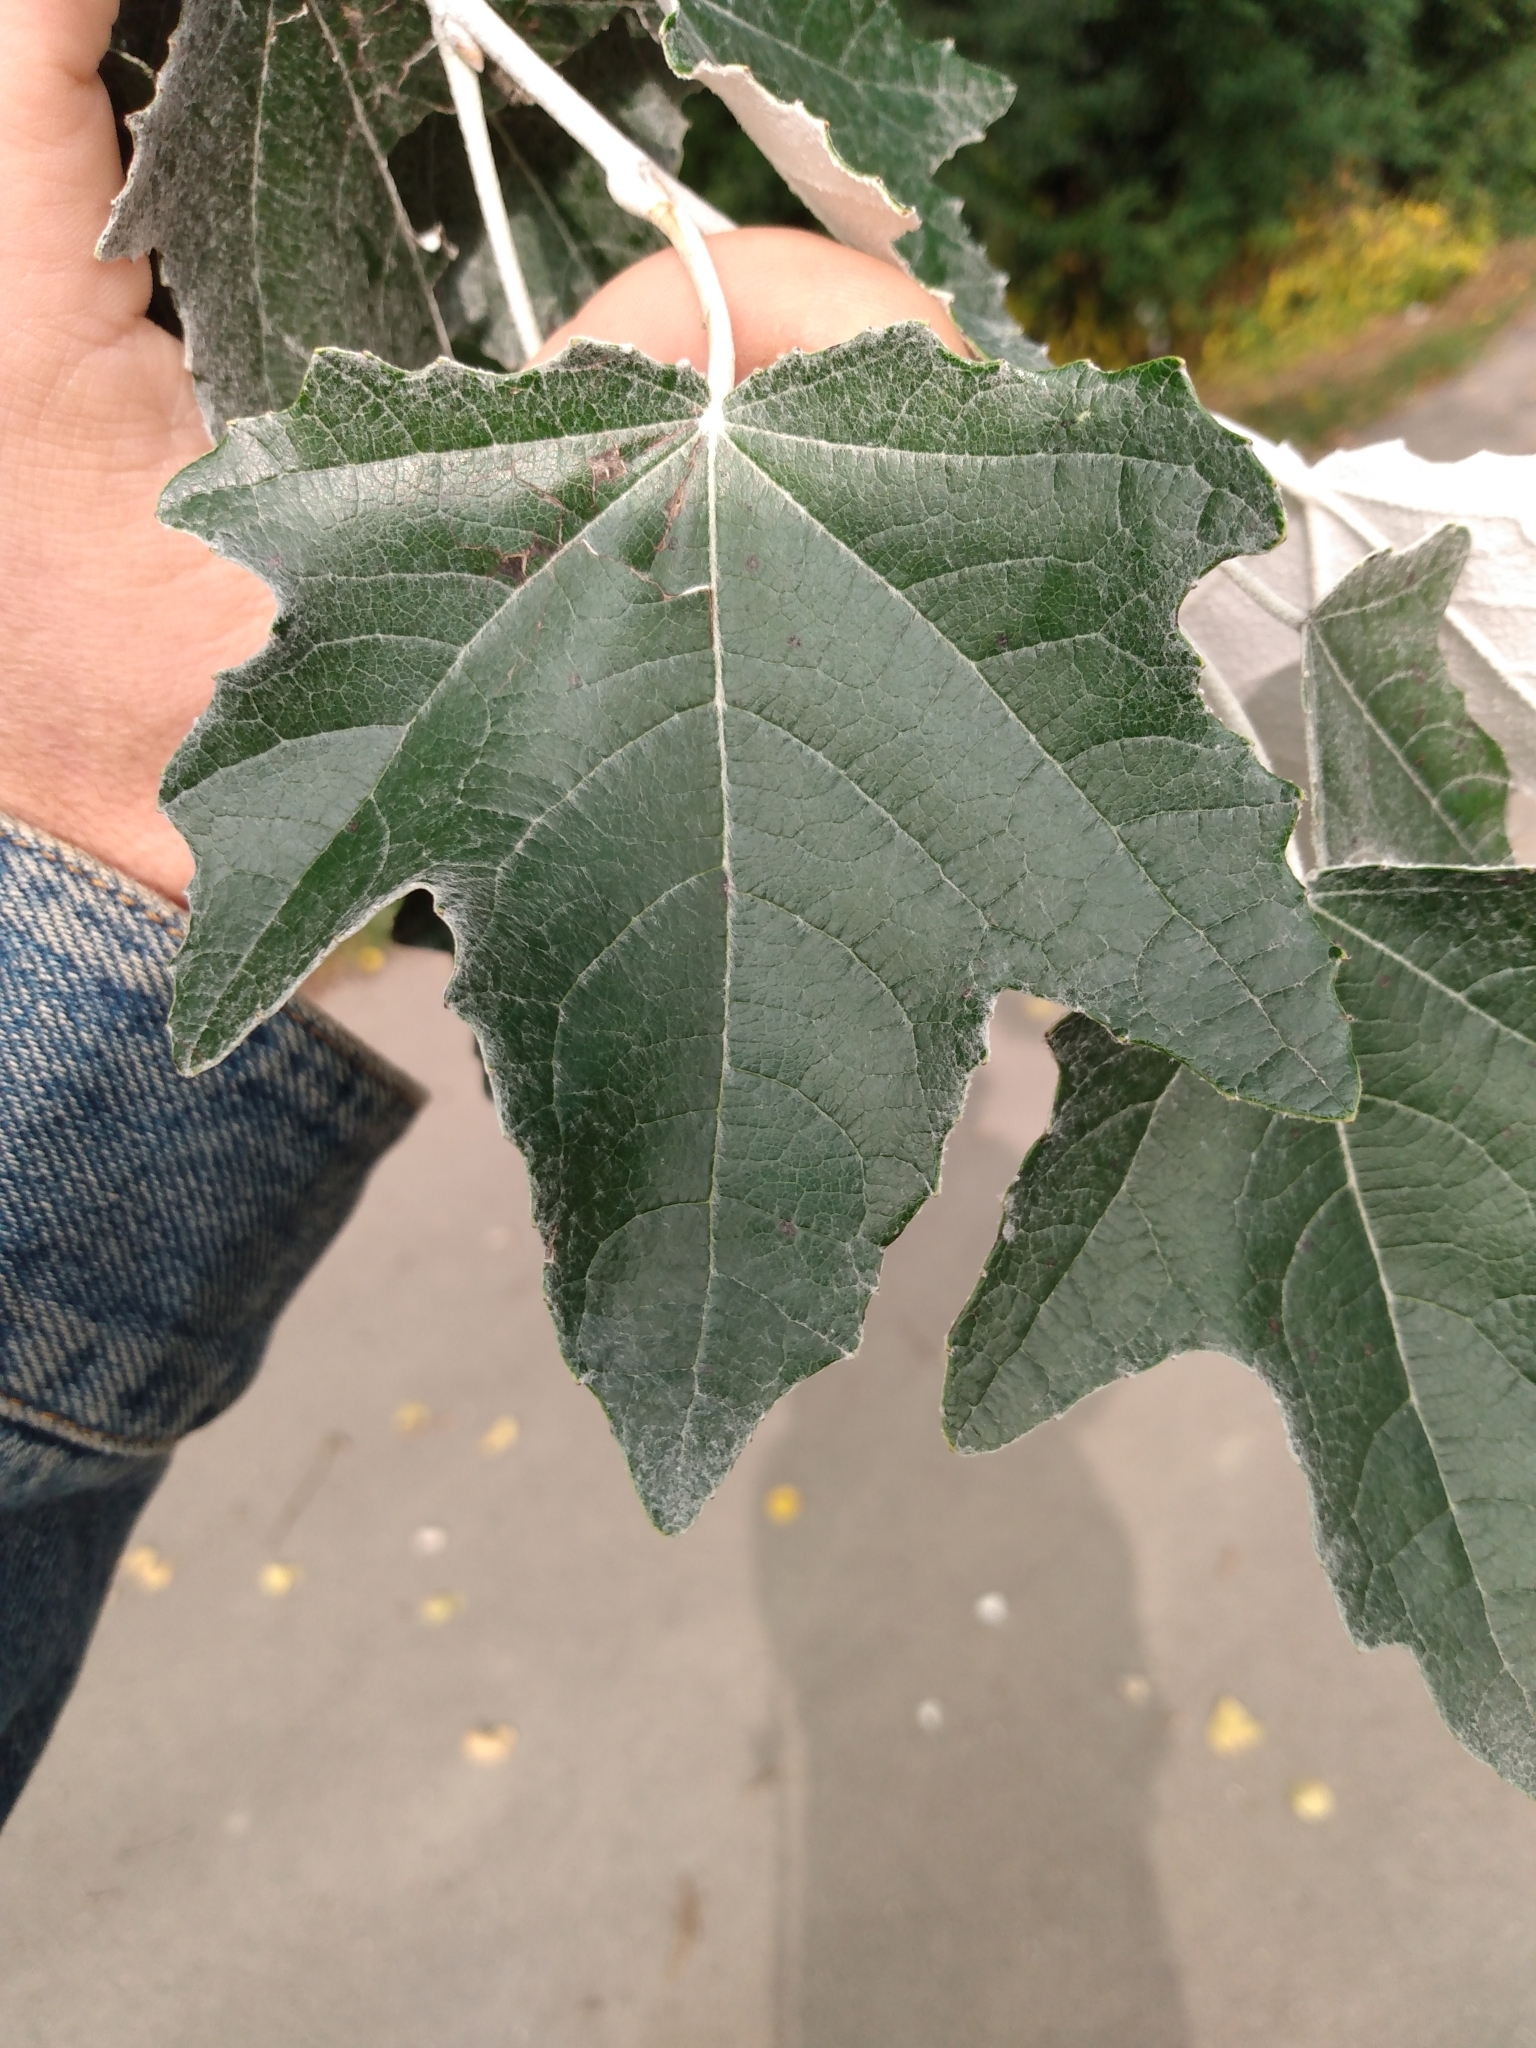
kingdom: Plantae
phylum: Tracheophyta
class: Magnoliopsida
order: Malpighiales
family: Salicaceae
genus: Populus
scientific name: Populus alba
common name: White poplar
